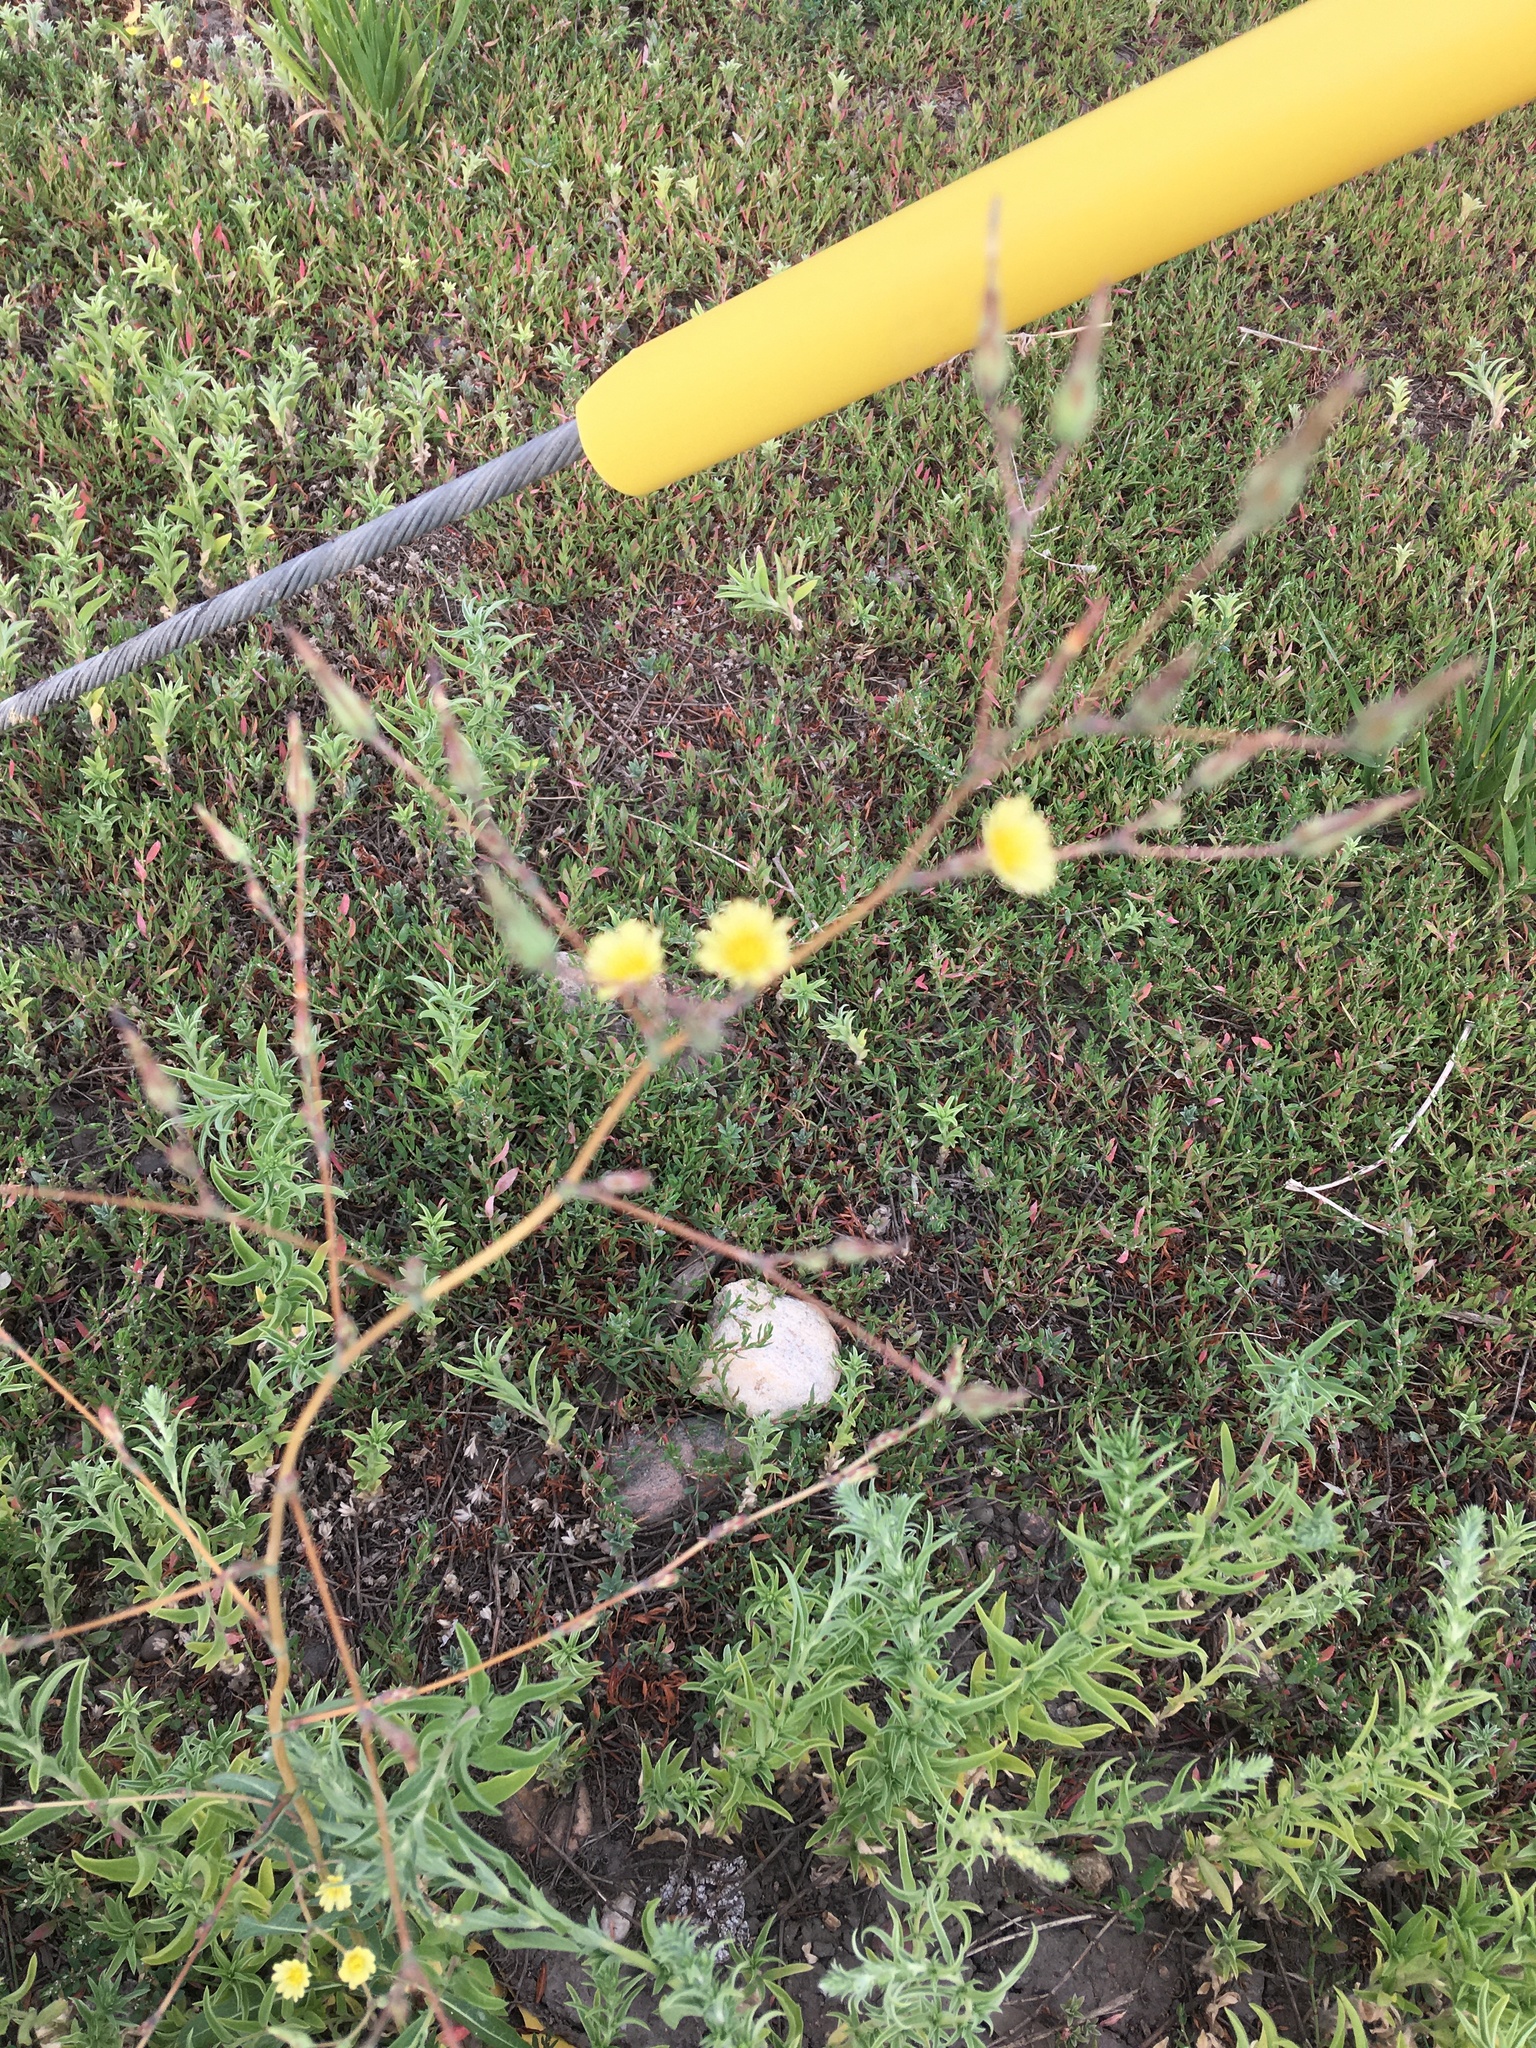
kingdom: Plantae
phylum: Tracheophyta
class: Magnoliopsida
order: Asterales
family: Asteraceae
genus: Lactuca
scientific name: Lactuca serriola
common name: Prickly lettuce
